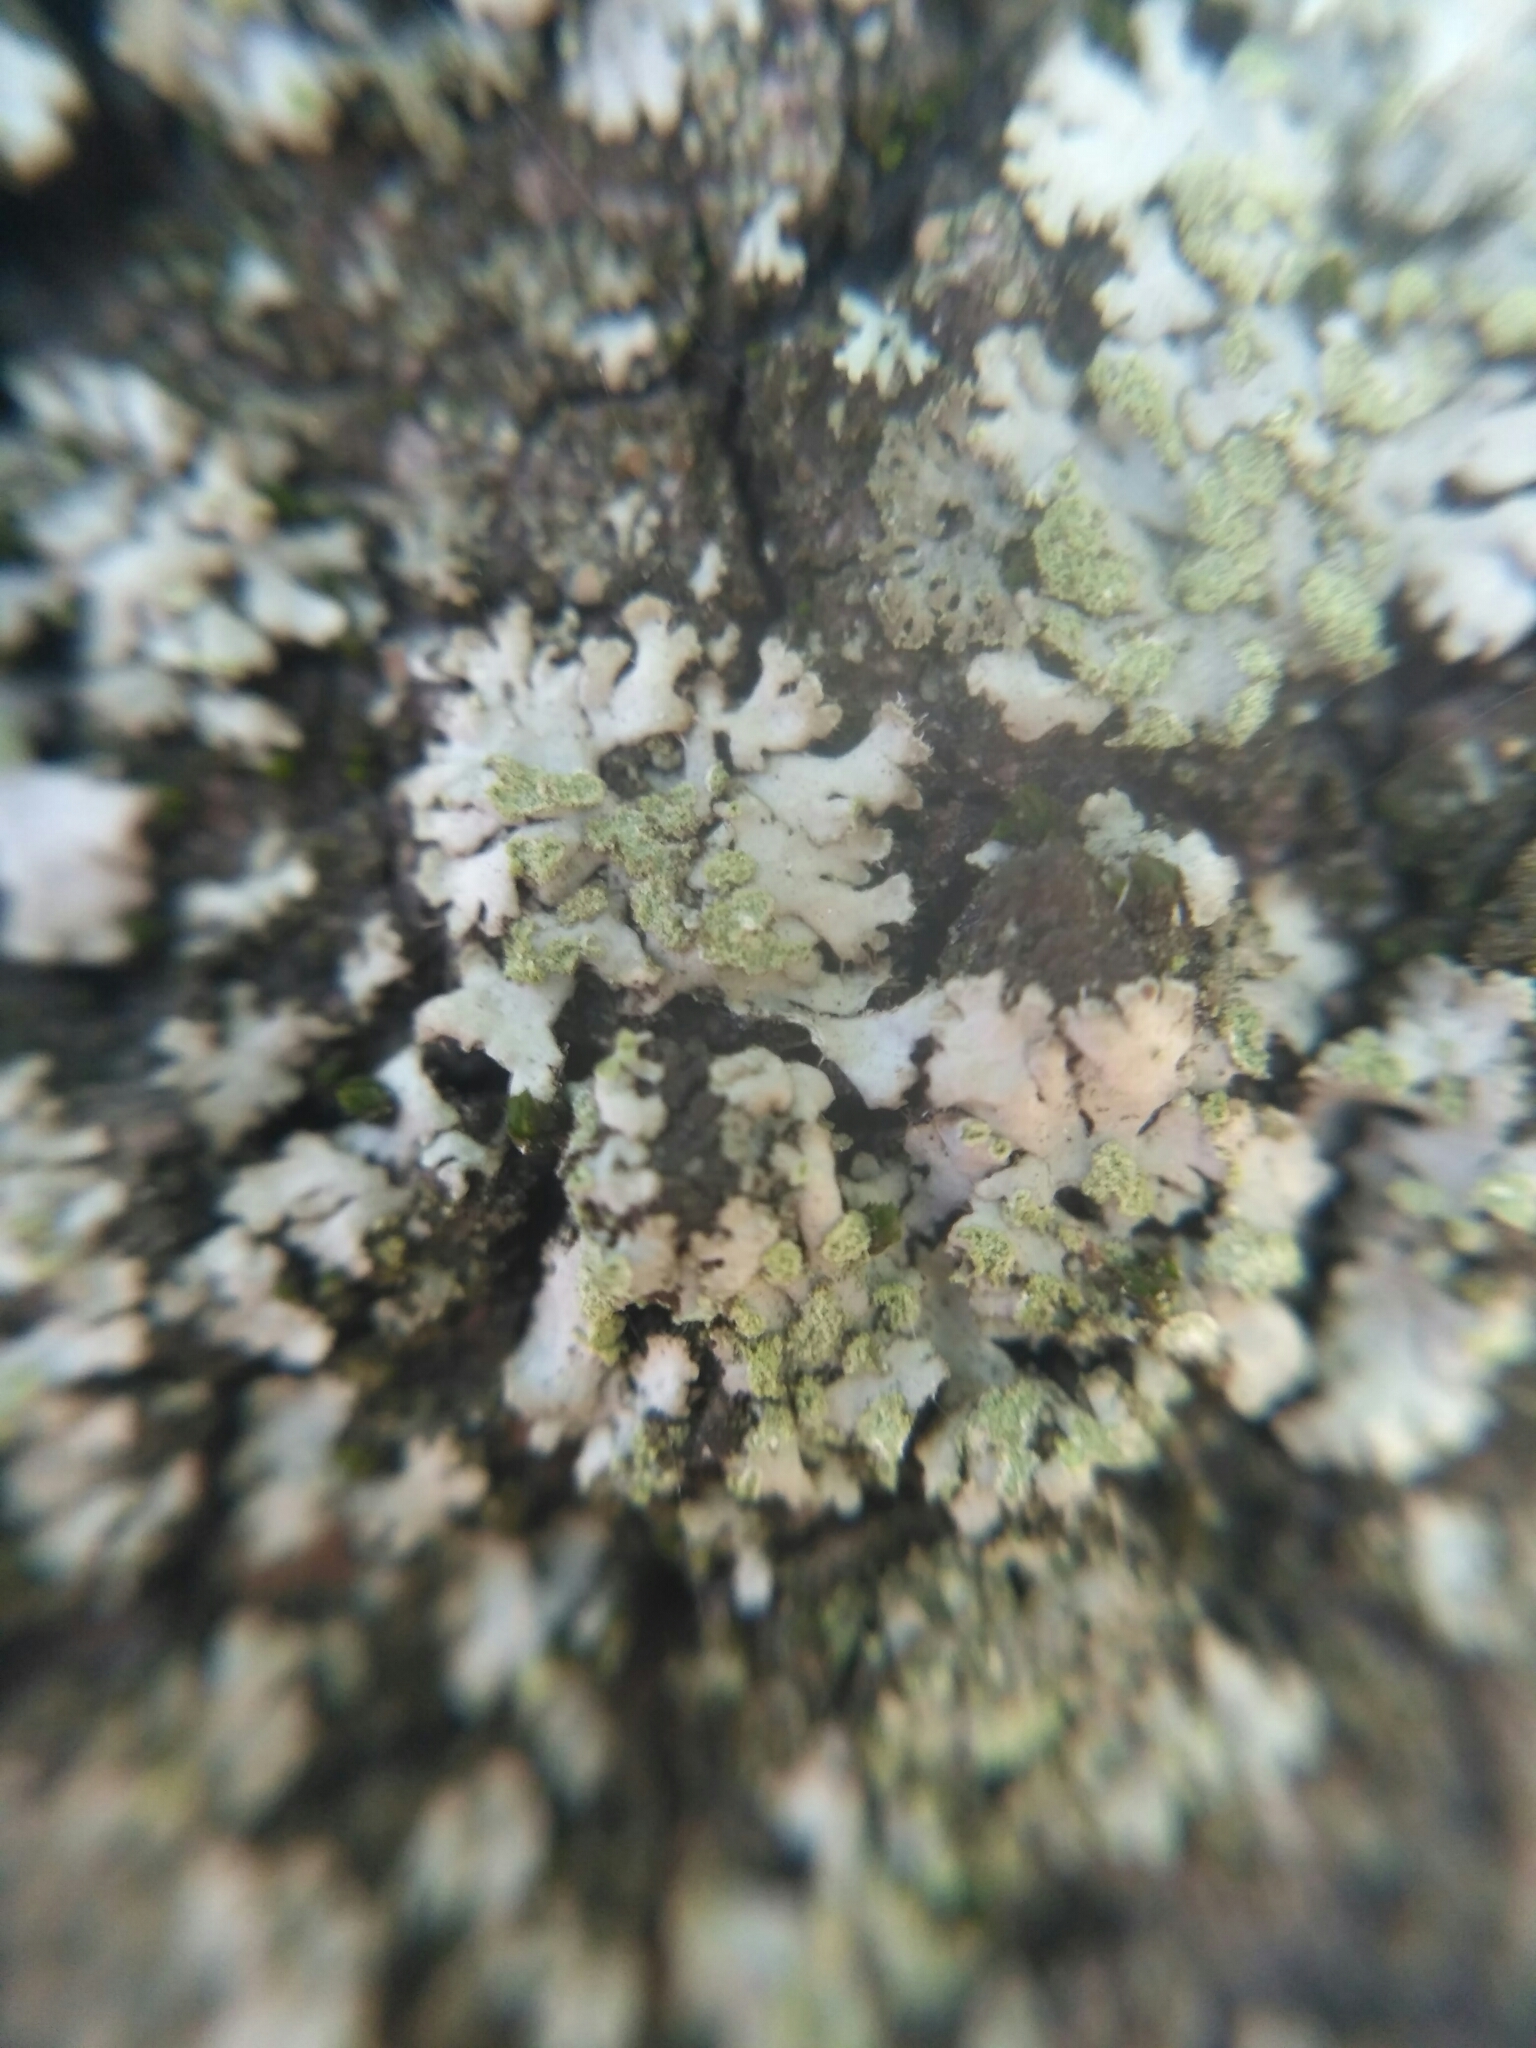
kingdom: Fungi
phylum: Ascomycota
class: Lecanoromycetes
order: Caliciales
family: Physciaceae
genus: Phaeophyscia
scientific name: Phaeophyscia orbicularis
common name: Mealy shadow lichen
